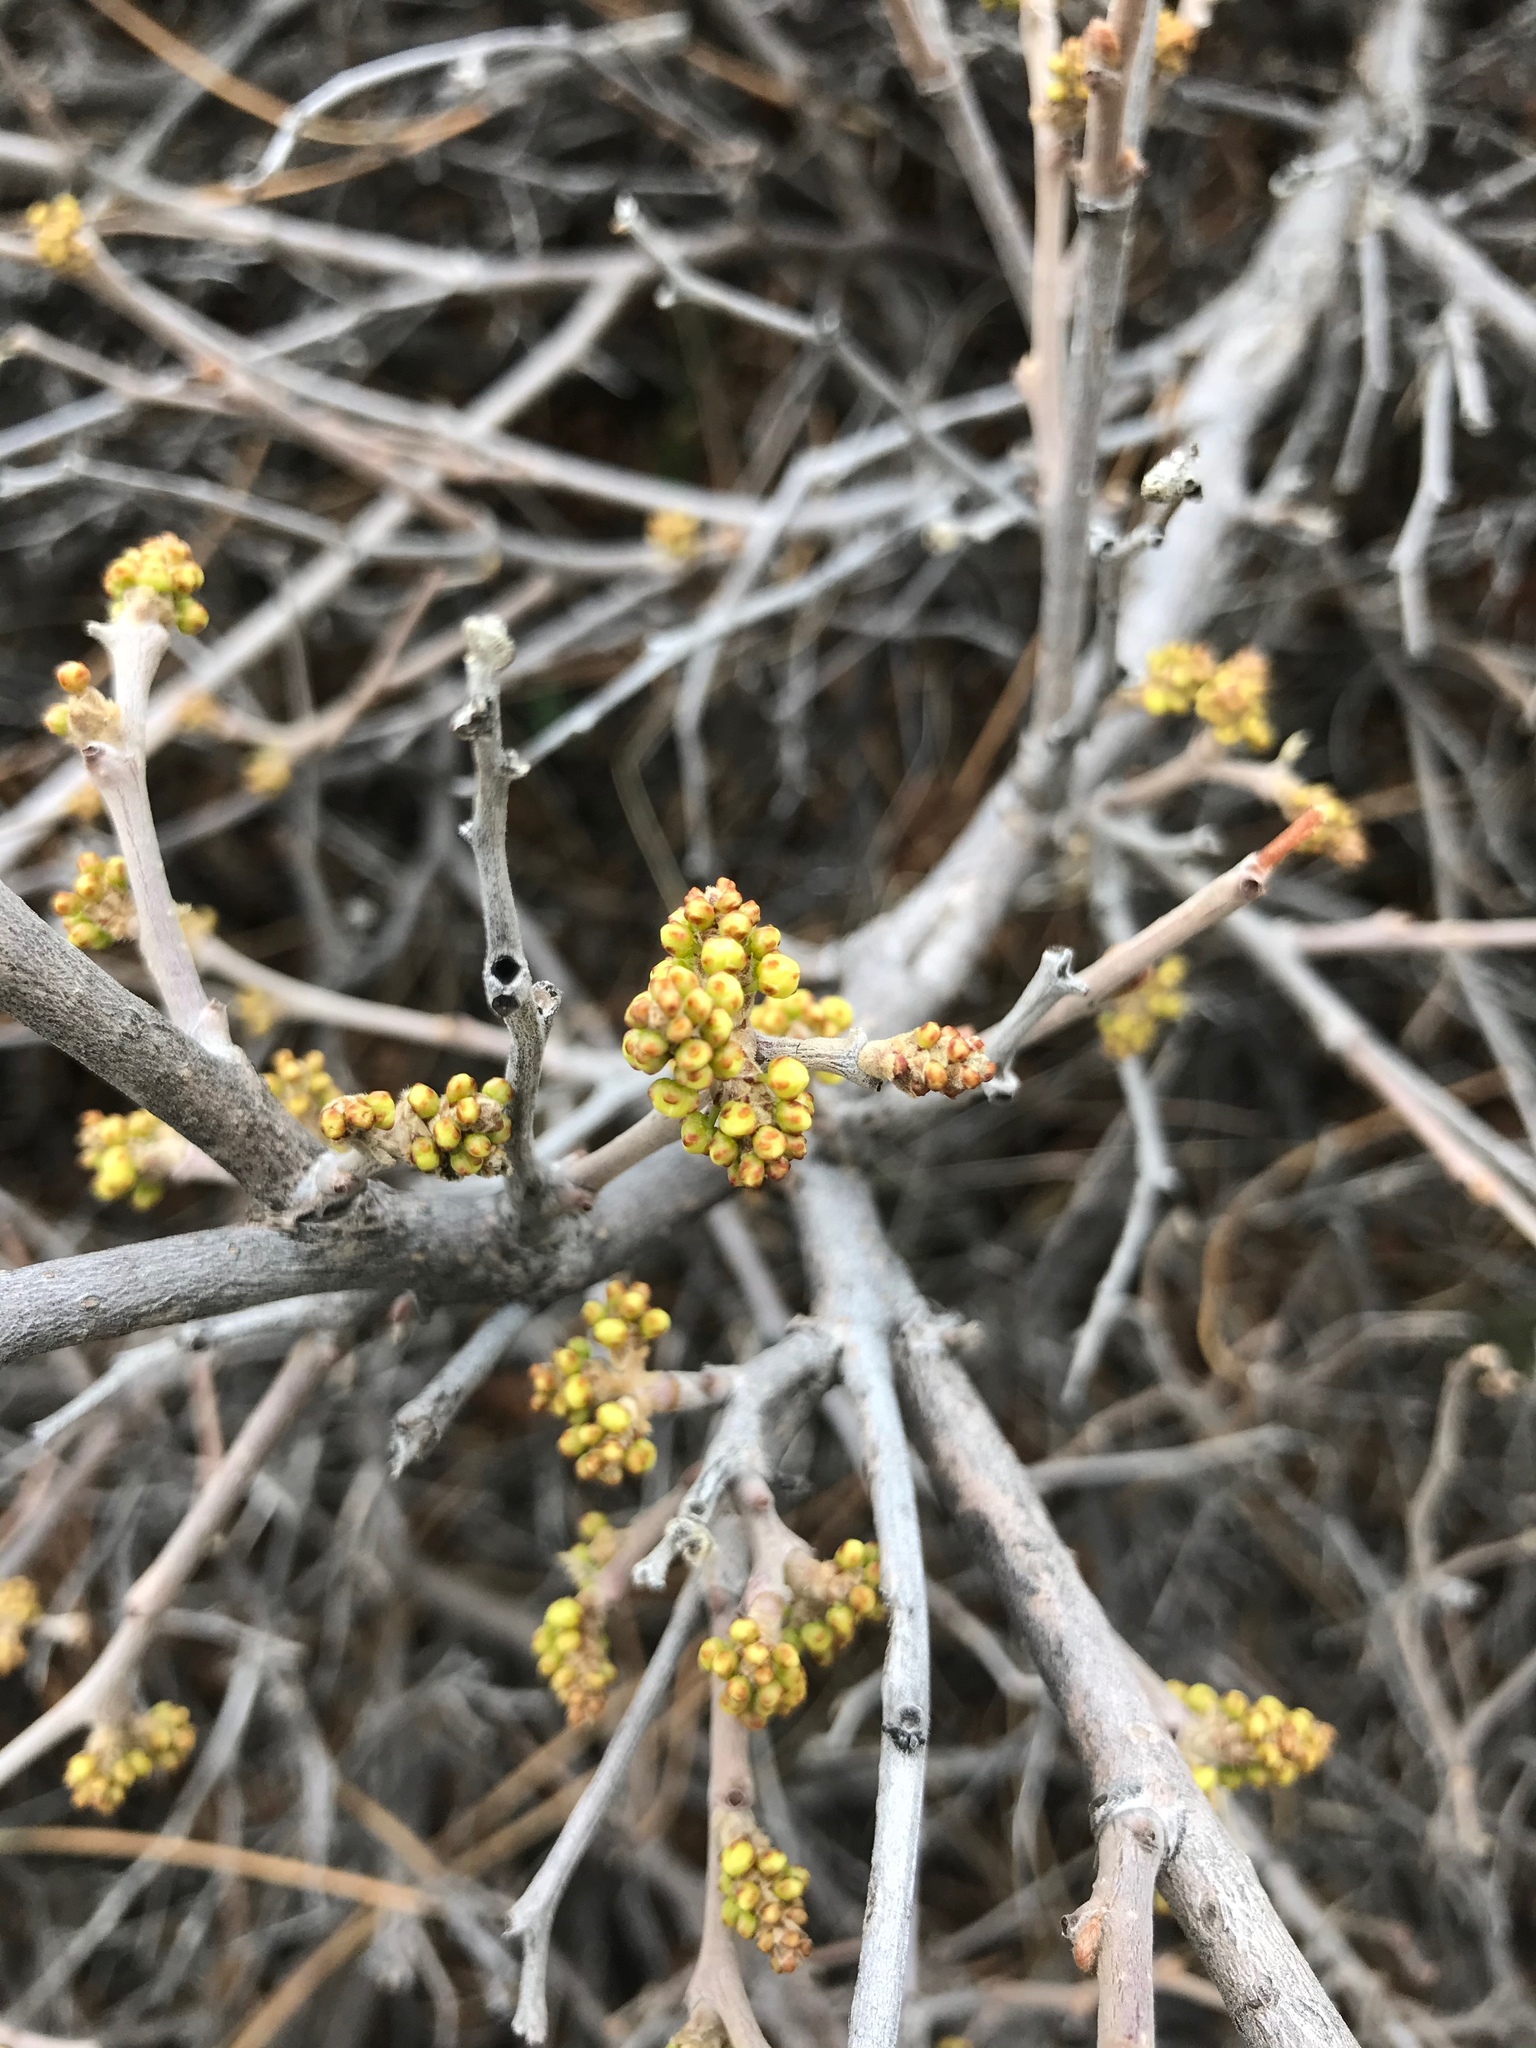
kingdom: Plantae
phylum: Tracheophyta
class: Magnoliopsida
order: Sapindales
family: Anacardiaceae
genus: Rhus
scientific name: Rhus aromatica
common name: Aromatic sumac
